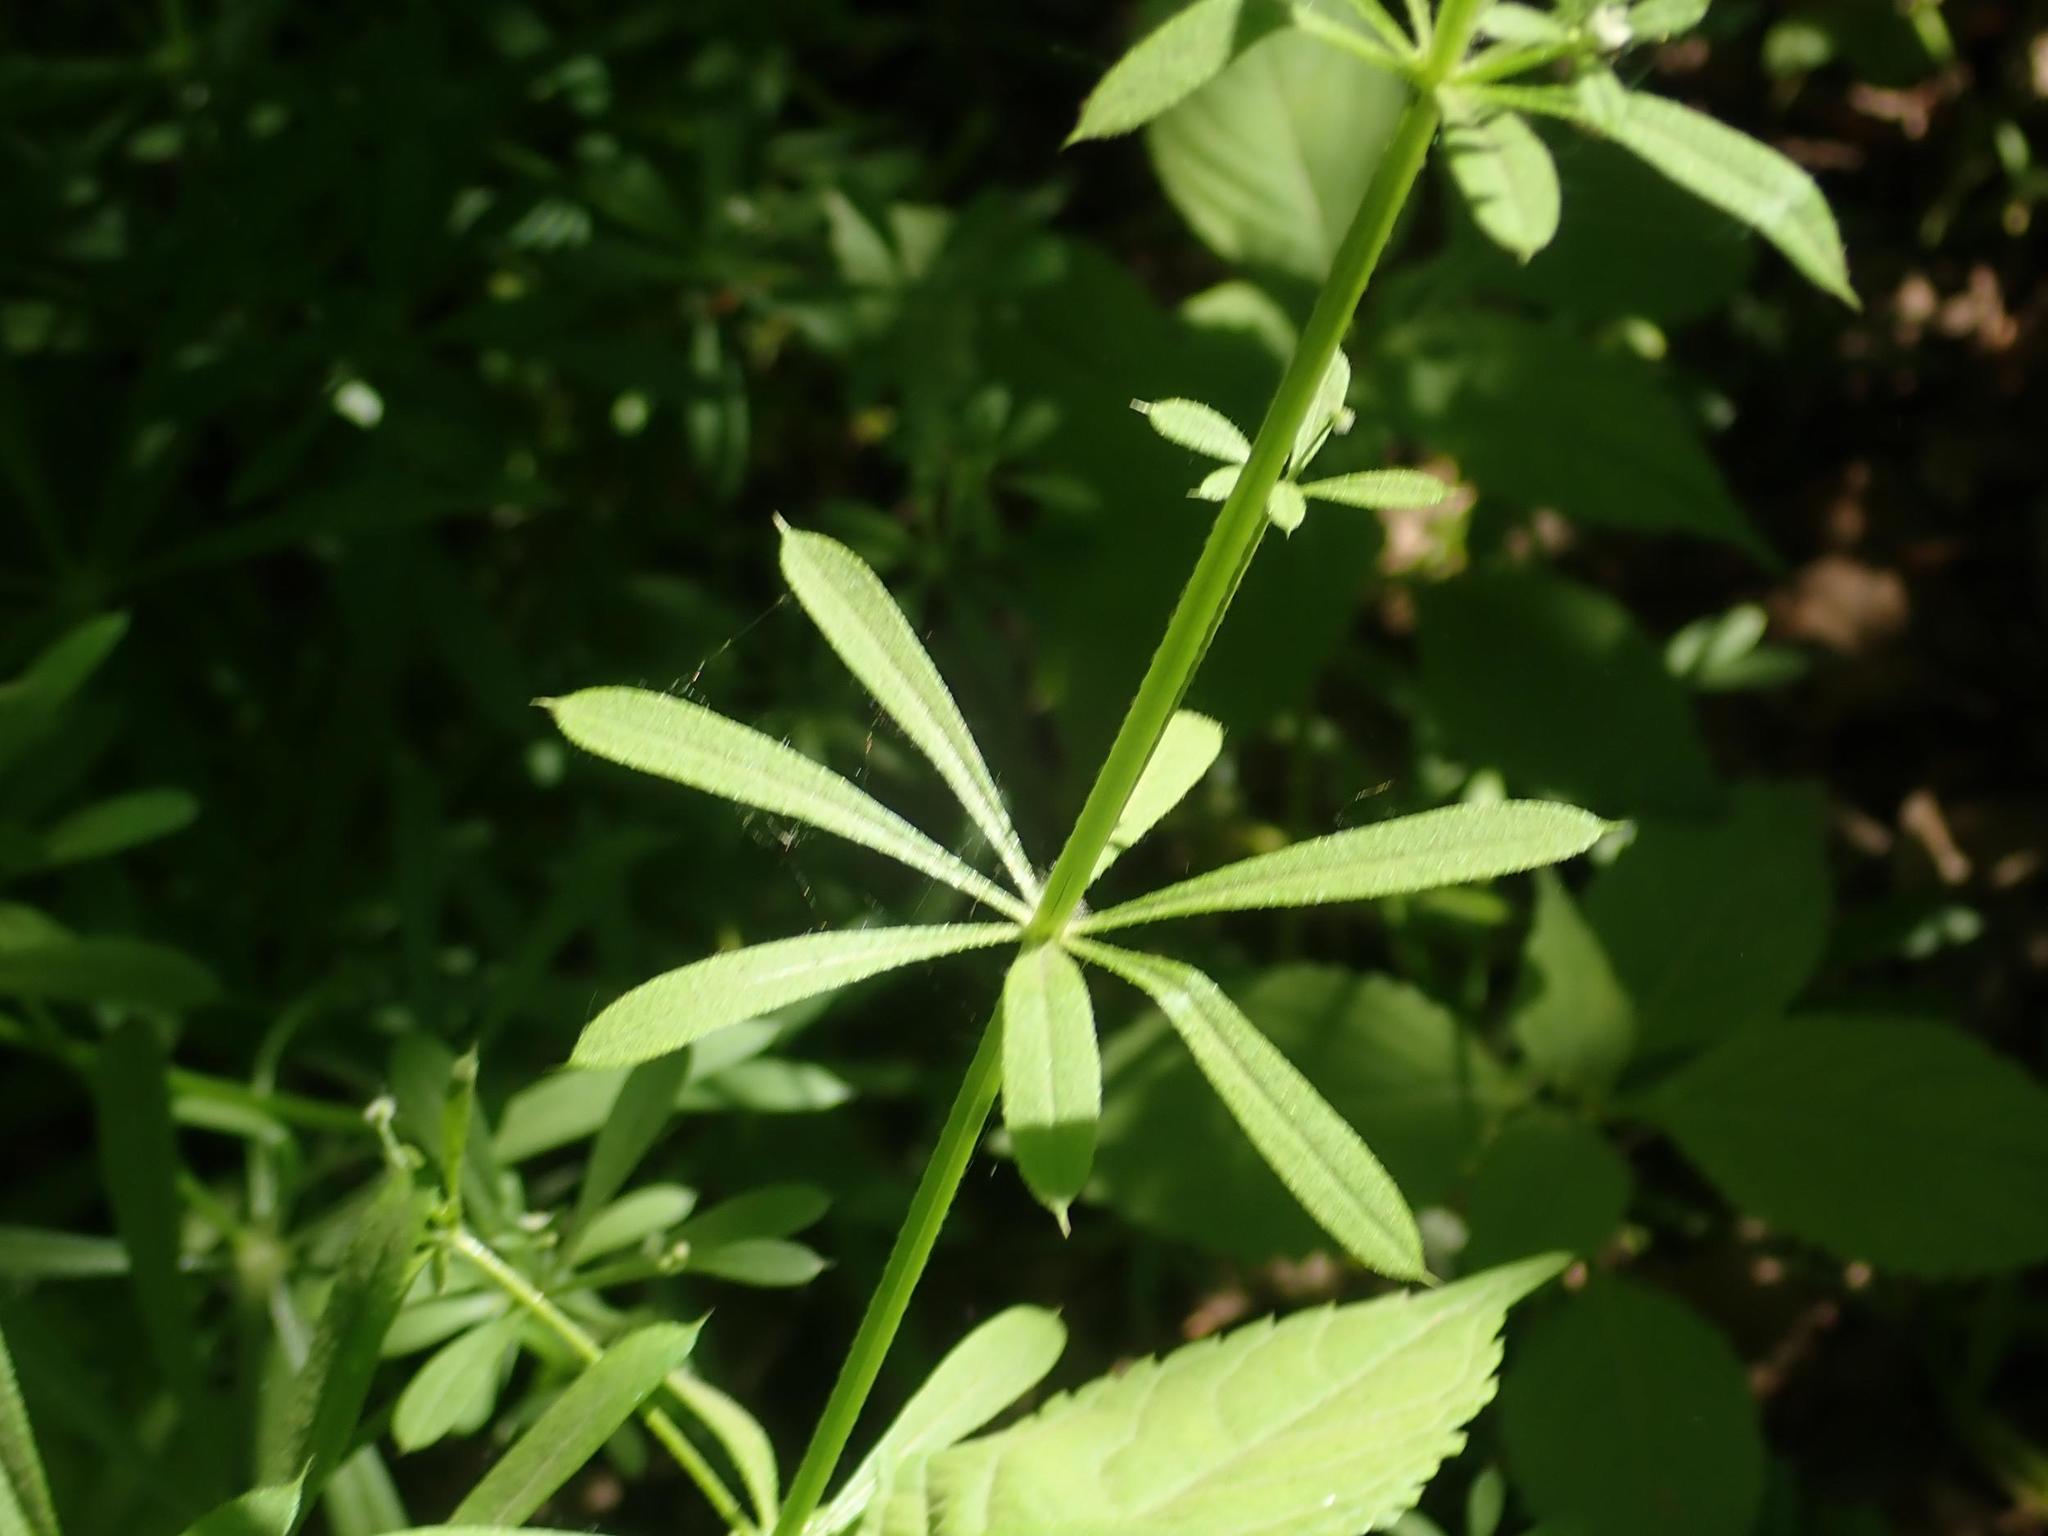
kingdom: Plantae
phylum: Tracheophyta
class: Magnoliopsida
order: Gentianales
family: Rubiaceae
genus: Galium
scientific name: Galium aparine
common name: Cleavers
